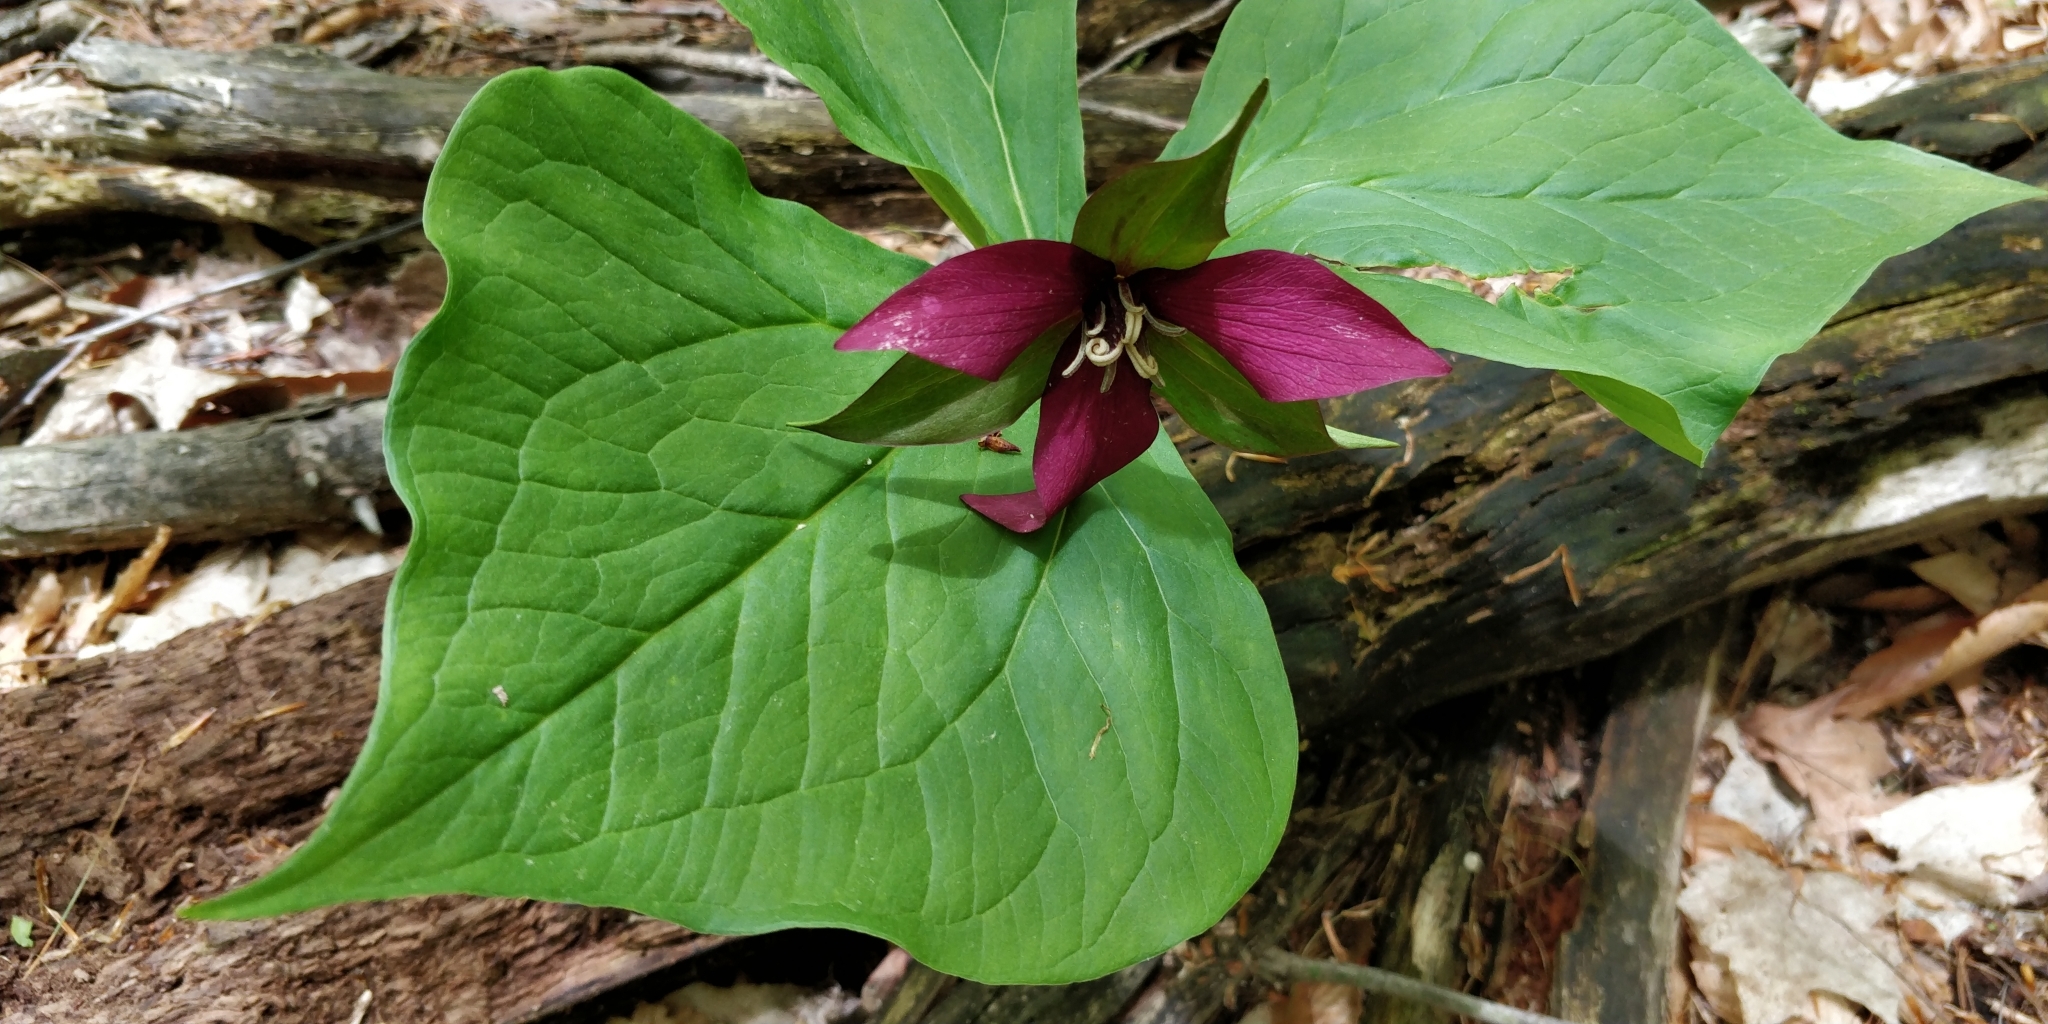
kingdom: Plantae
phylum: Tracheophyta
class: Liliopsida
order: Liliales
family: Melanthiaceae
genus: Trillium
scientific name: Trillium erectum
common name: Purple trillium
